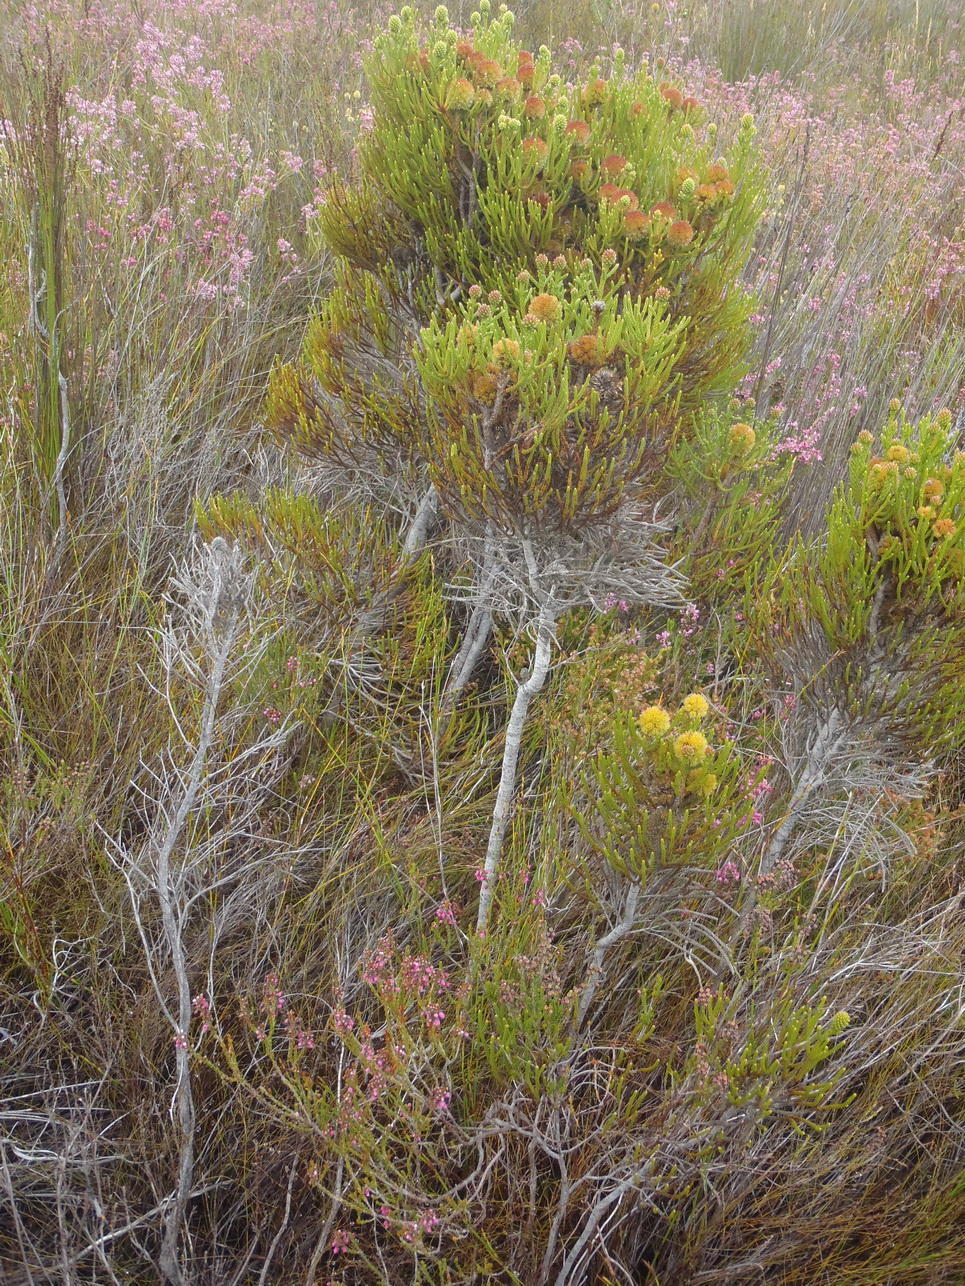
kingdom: Plantae
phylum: Tracheophyta
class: Magnoliopsida
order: Bruniales
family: Bruniaceae
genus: Brunia
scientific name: Brunia fragarioides
